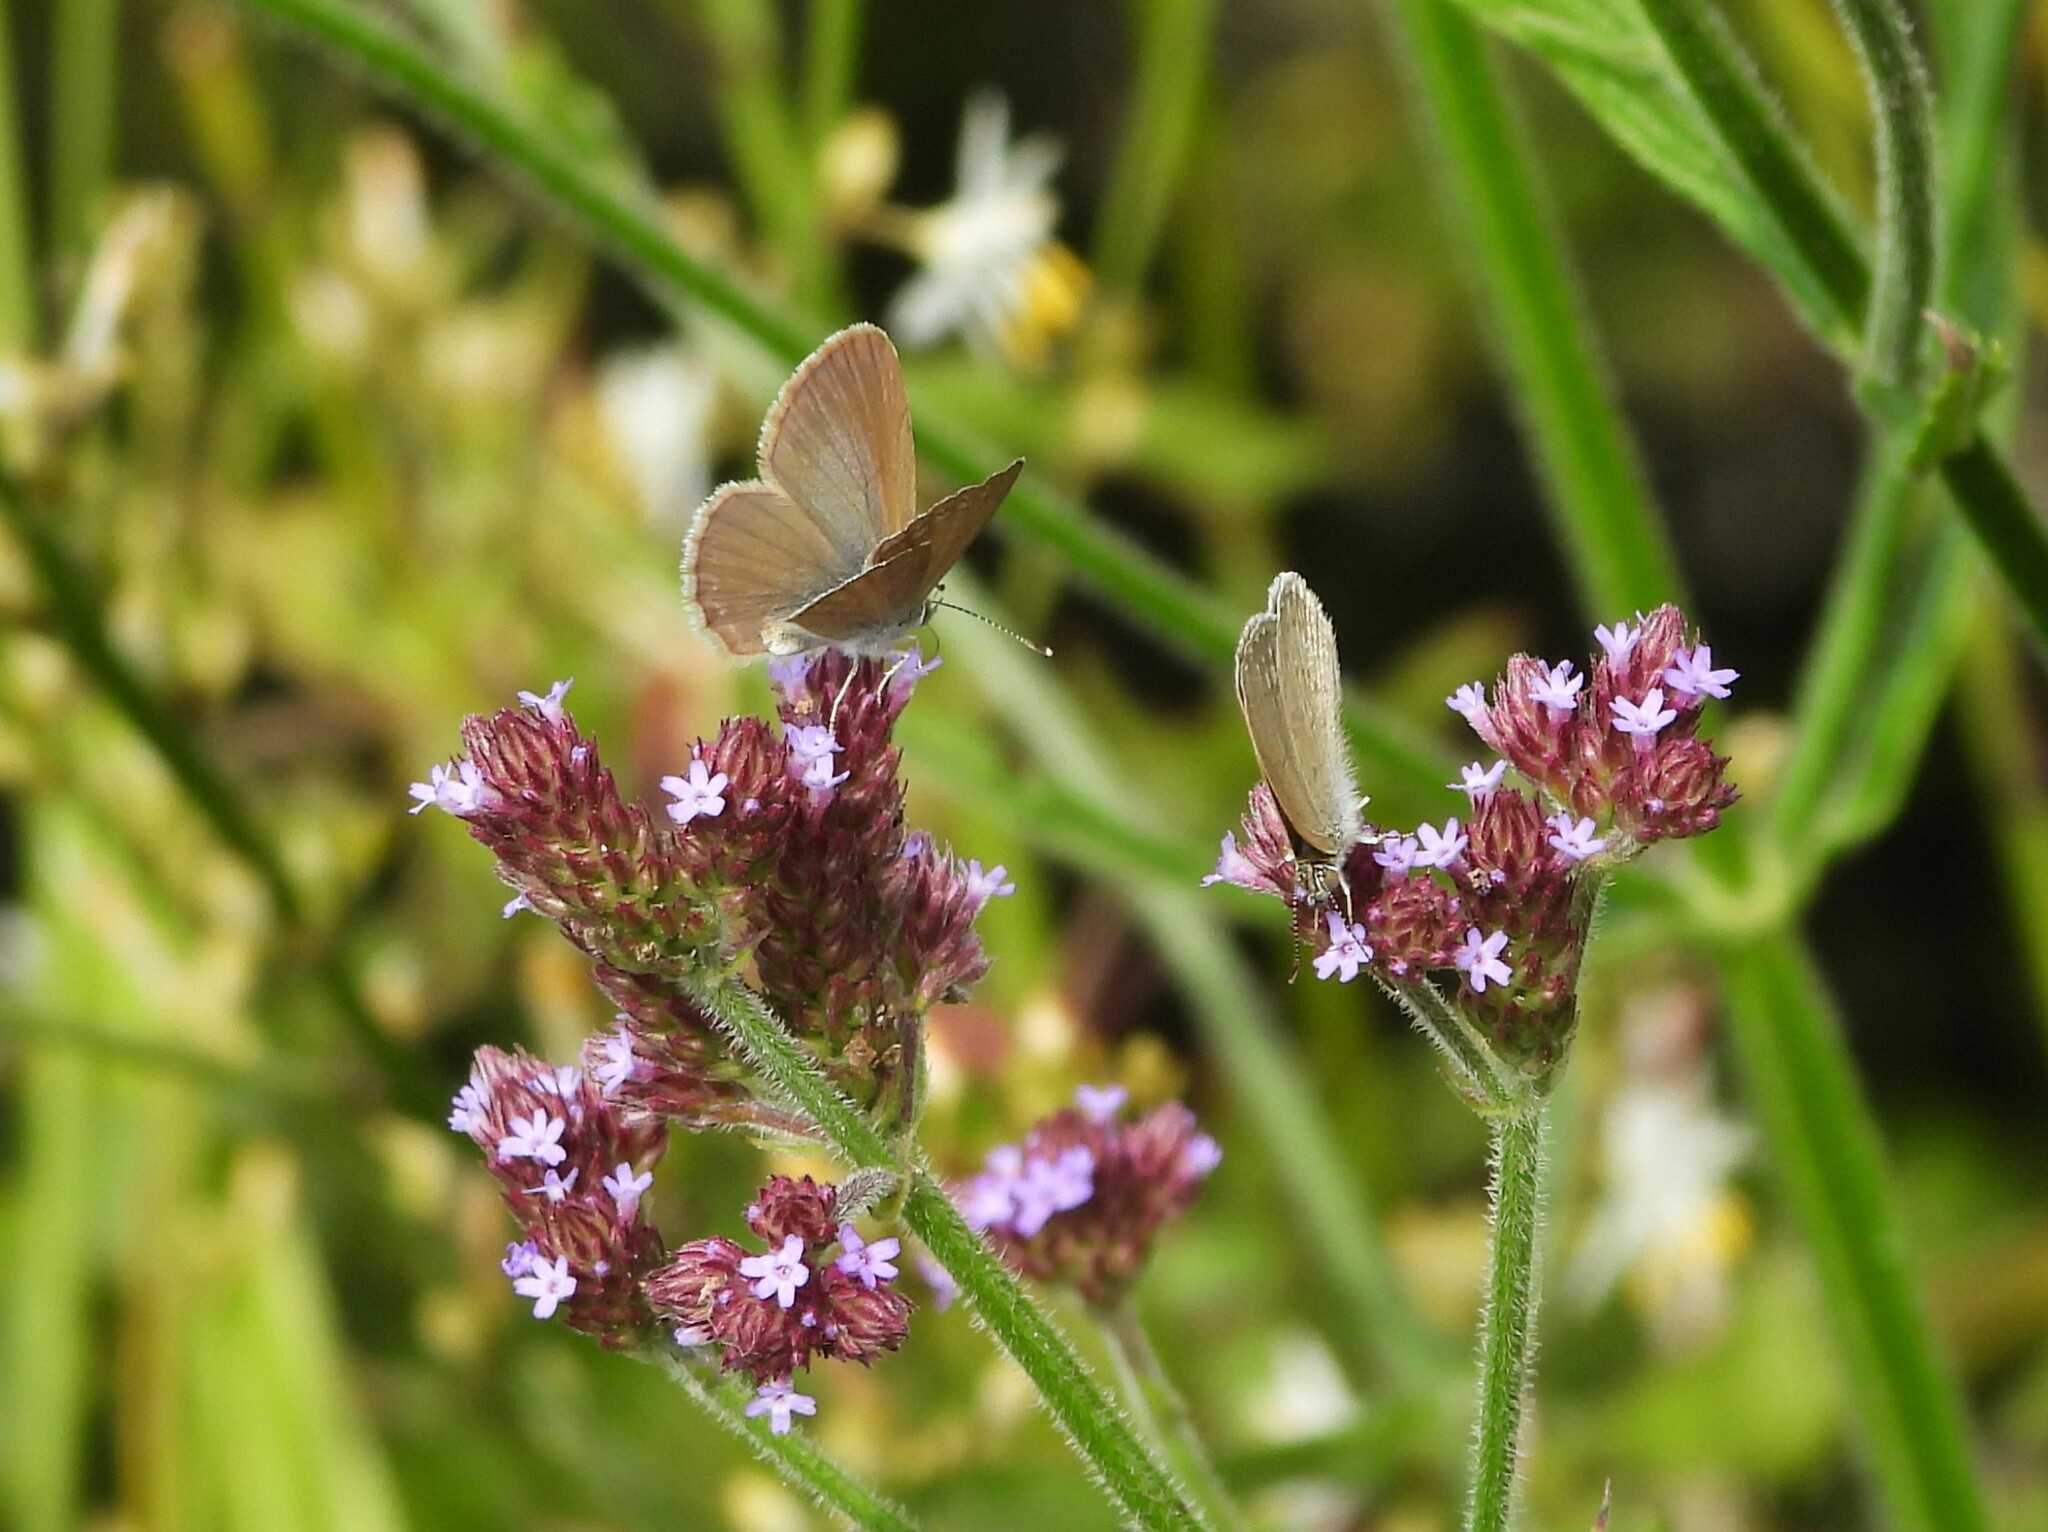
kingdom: Animalia
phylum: Arthropoda
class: Insecta
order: Lepidoptera
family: Lycaenidae
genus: Zizina
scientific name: Zizina otis
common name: Lesser grass blue
